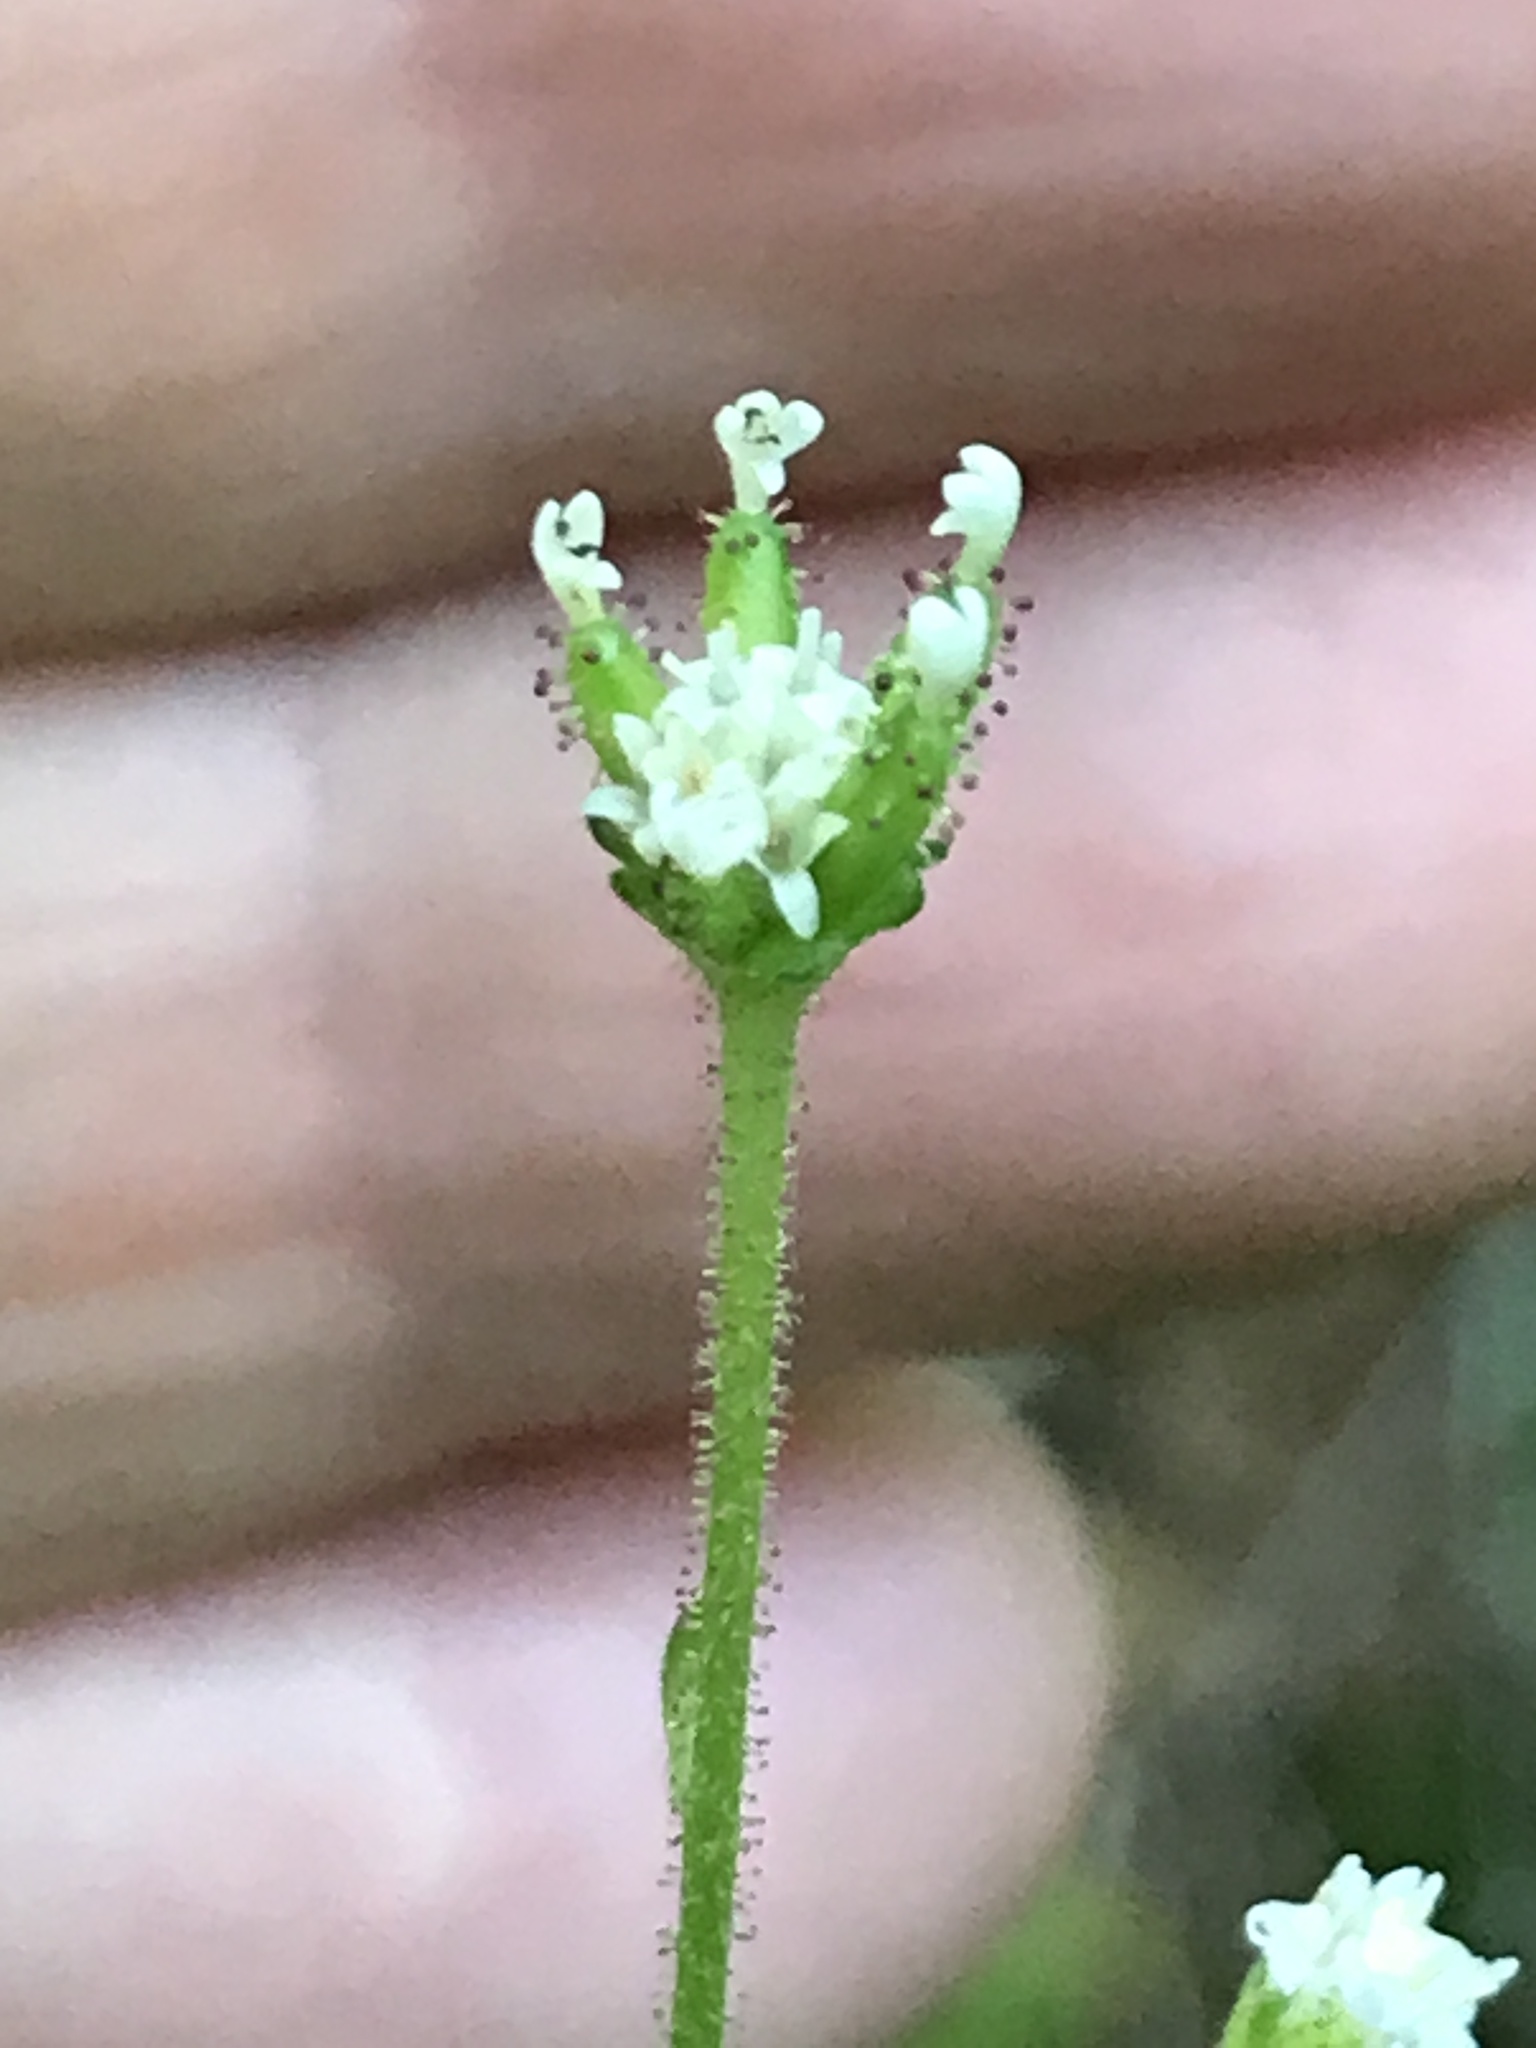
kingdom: Plantae
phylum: Tracheophyta
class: Magnoliopsida
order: Asterales
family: Asteraceae
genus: Adenocaulon
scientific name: Adenocaulon bicolor
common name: Trailplant
